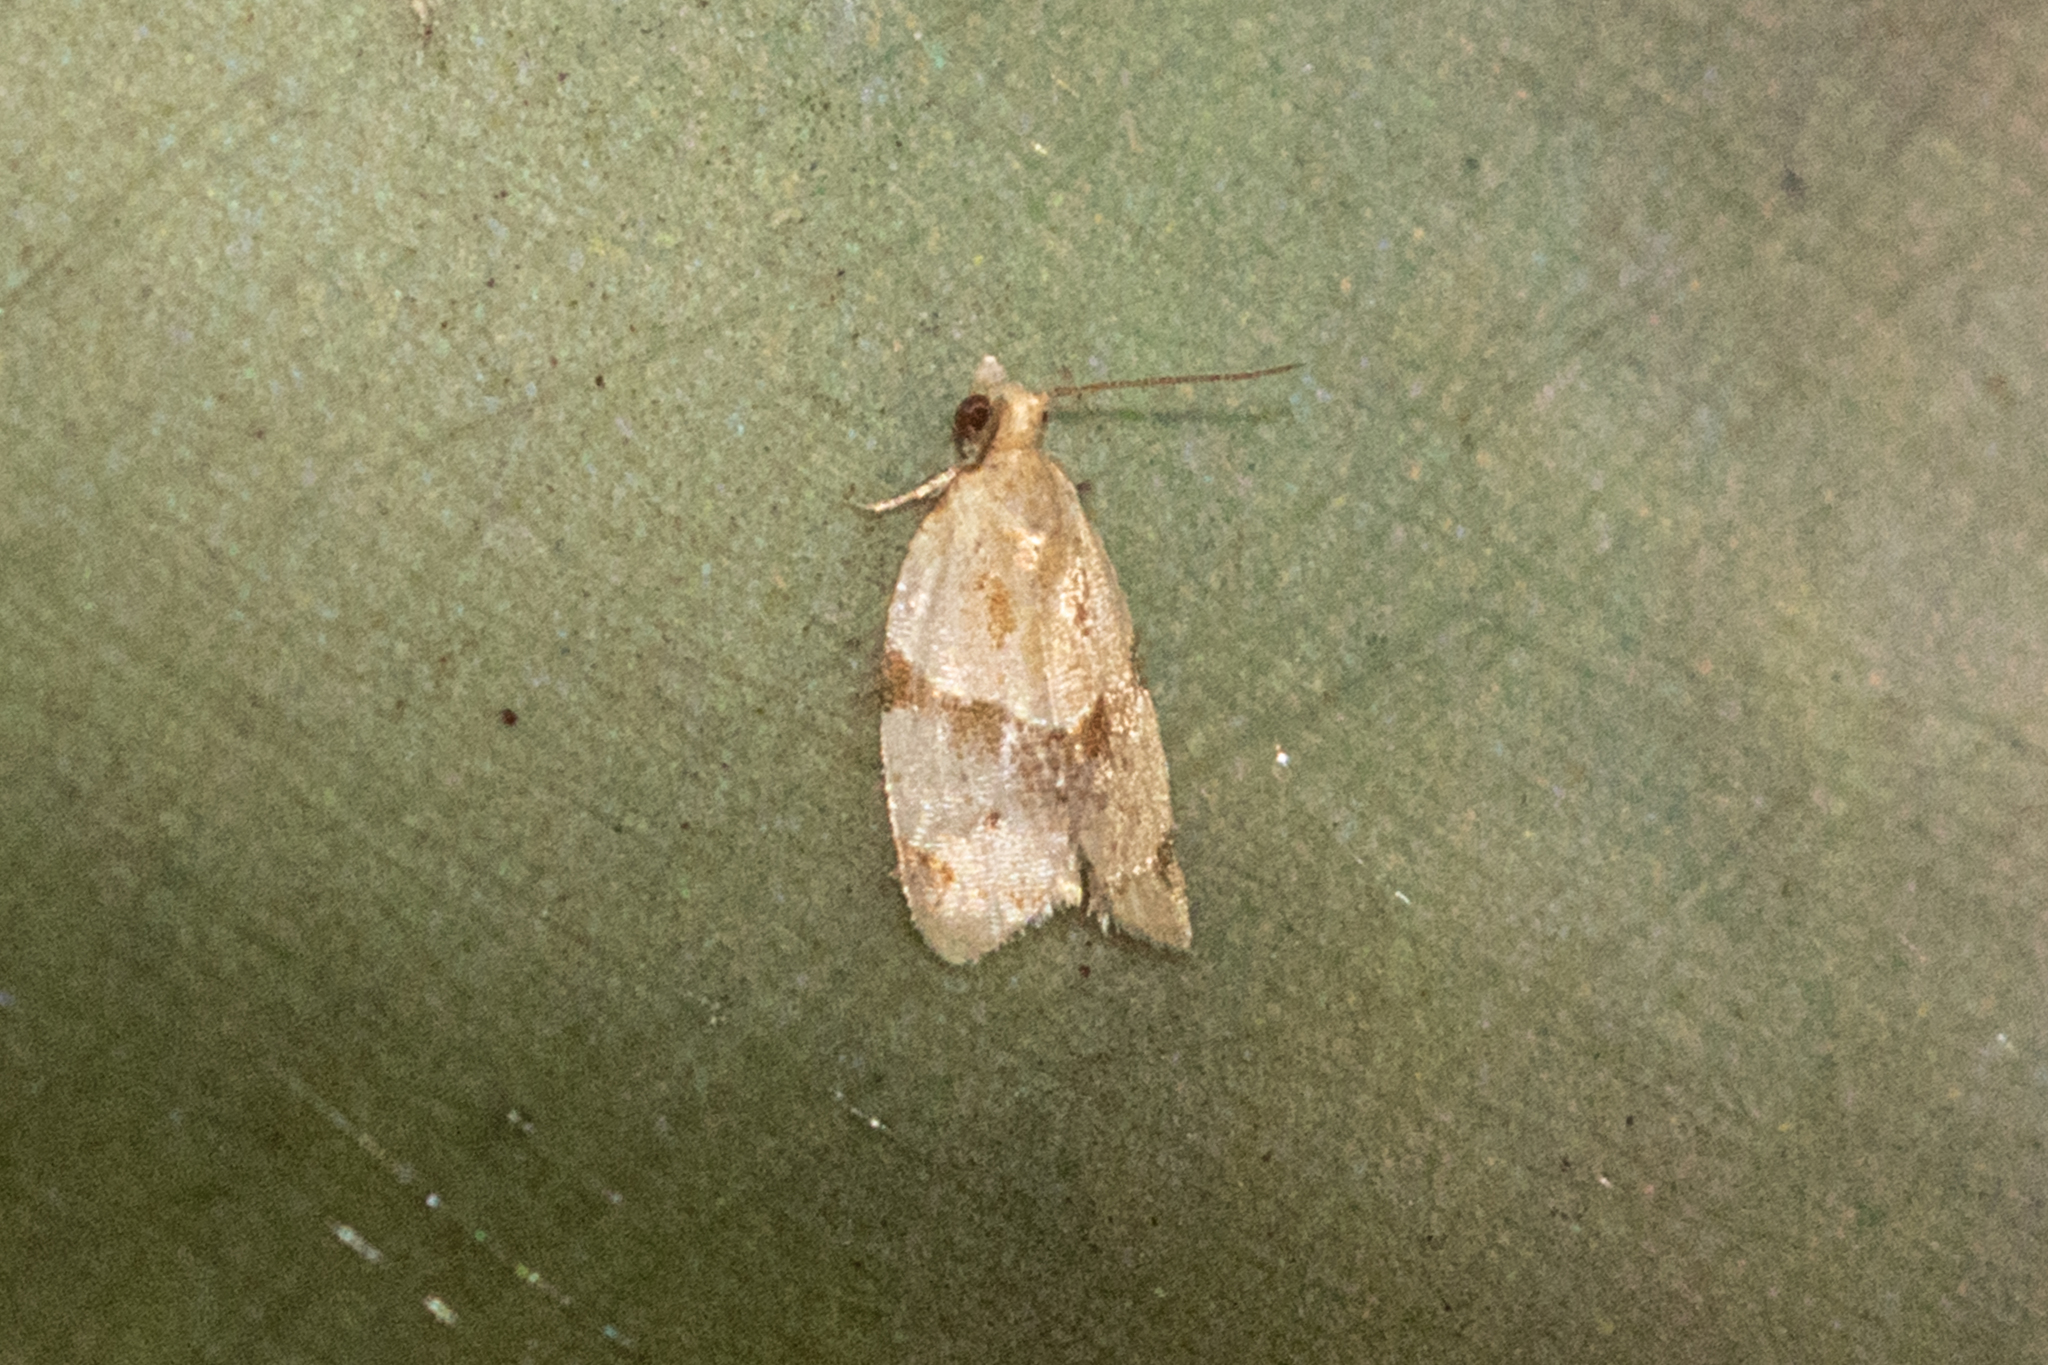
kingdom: Animalia
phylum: Arthropoda
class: Insecta
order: Lepidoptera
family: Tortricidae
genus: Clepsis
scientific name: Clepsis peritana
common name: Garden tortrix
